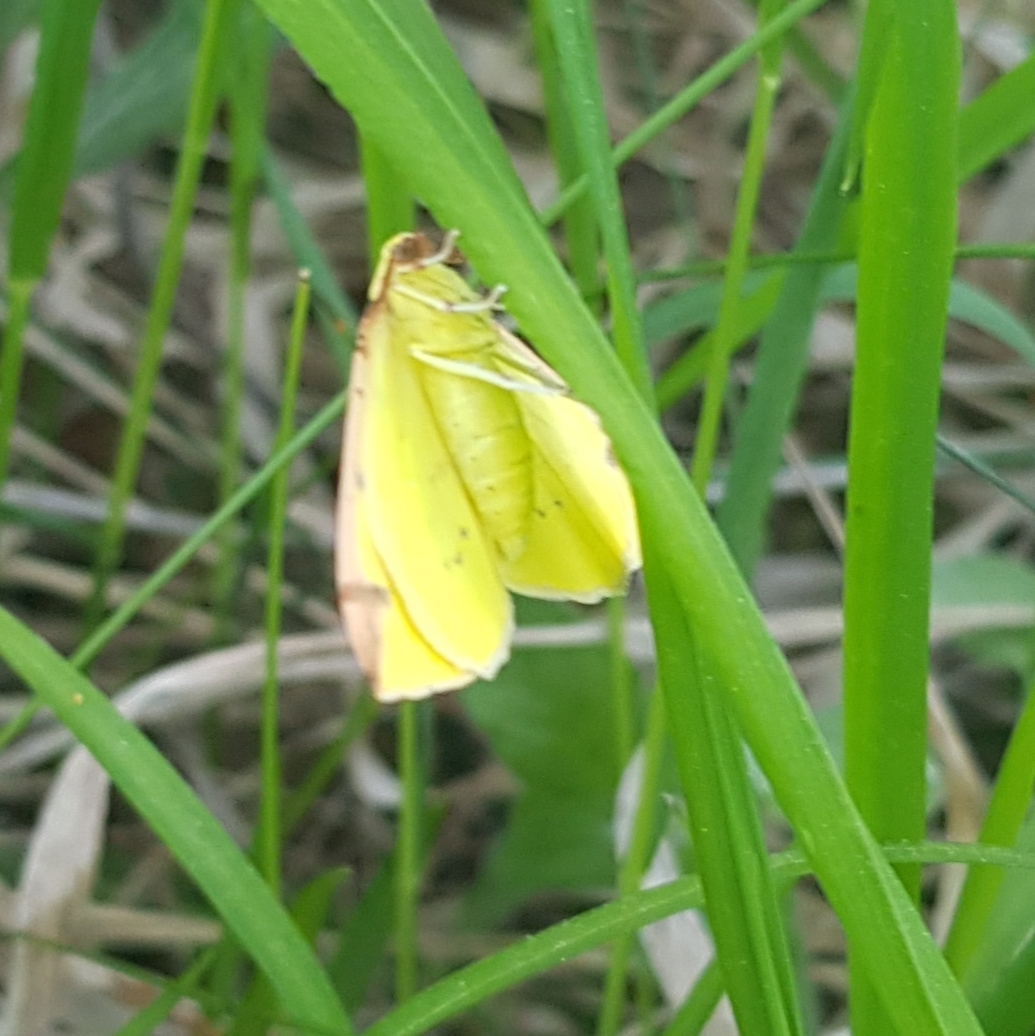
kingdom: Animalia
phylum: Arthropoda
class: Insecta
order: Lepidoptera
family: Geometridae
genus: Opisthograptis
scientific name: Opisthograptis luteolata
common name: Brimstone moth
